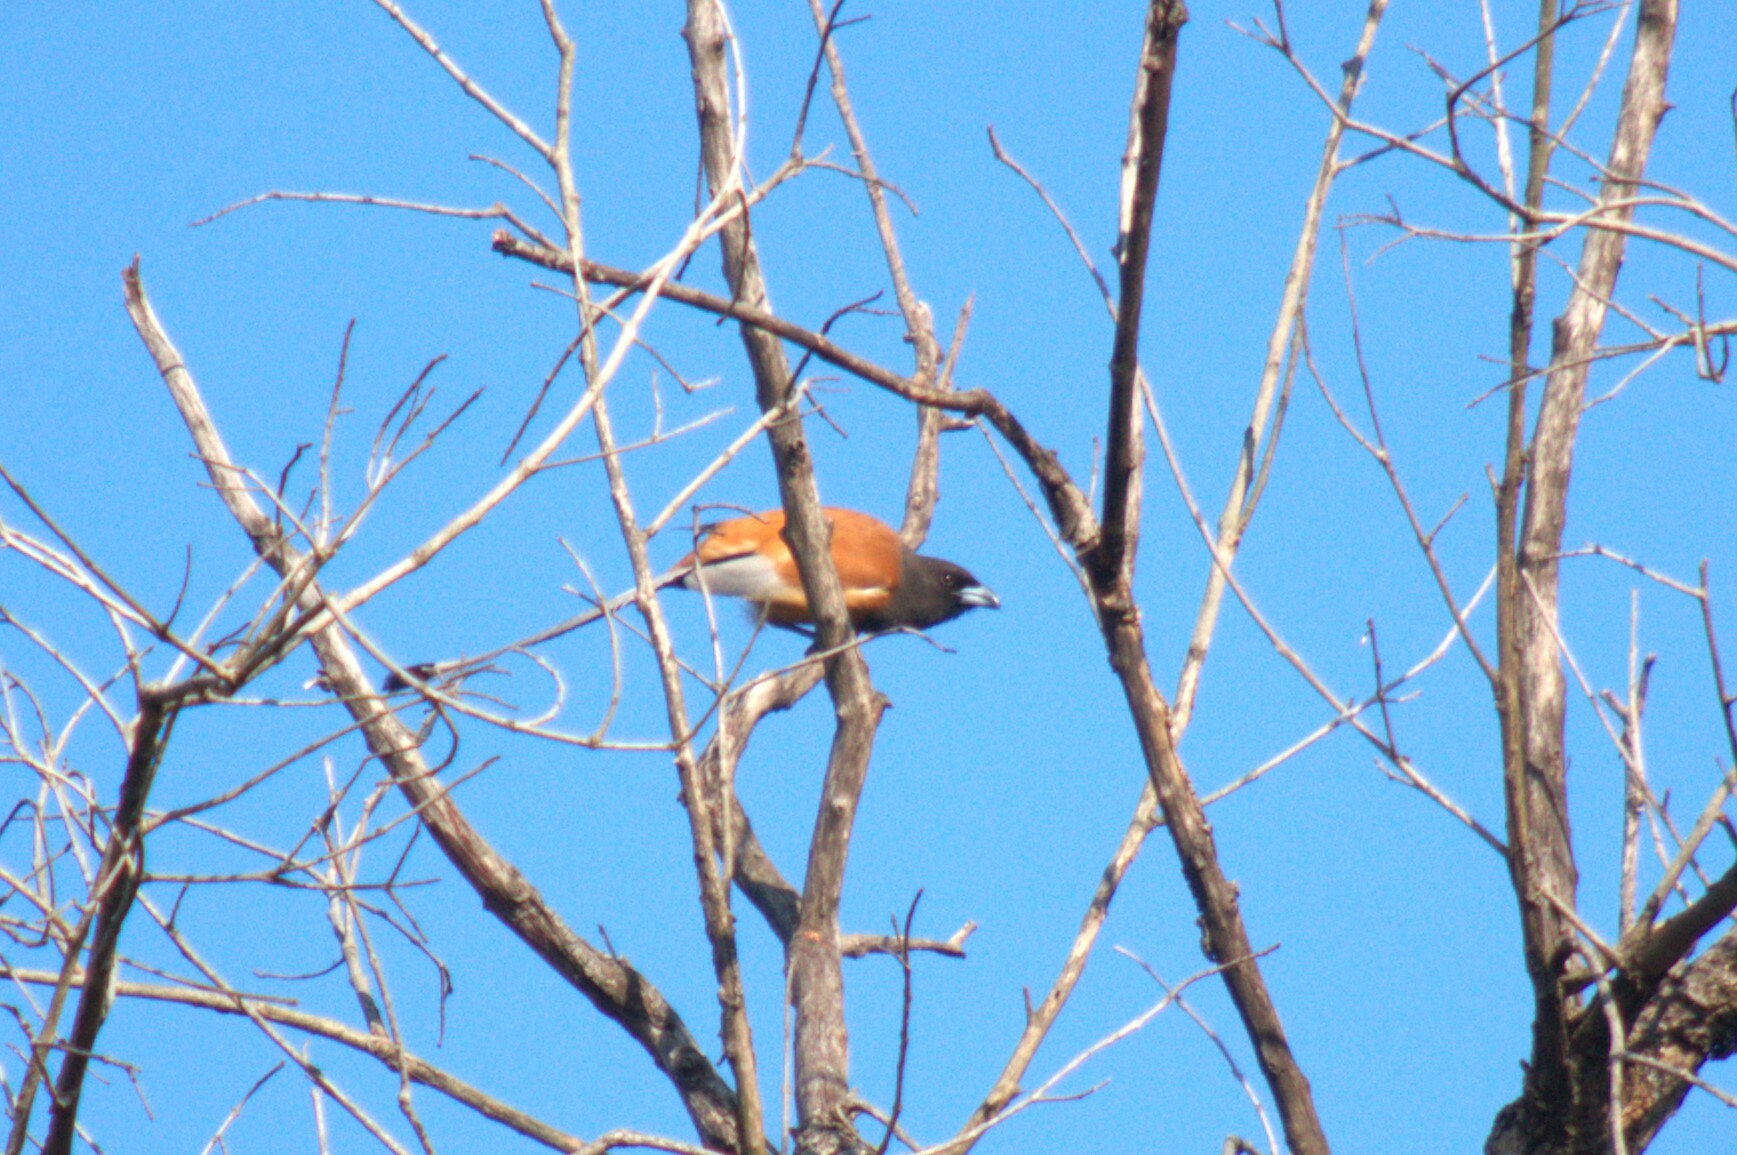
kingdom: Animalia
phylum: Chordata
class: Aves
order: Passeriformes
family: Corvidae
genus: Dendrocitta
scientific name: Dendrocitta vagabunda
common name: Rufous treepie
